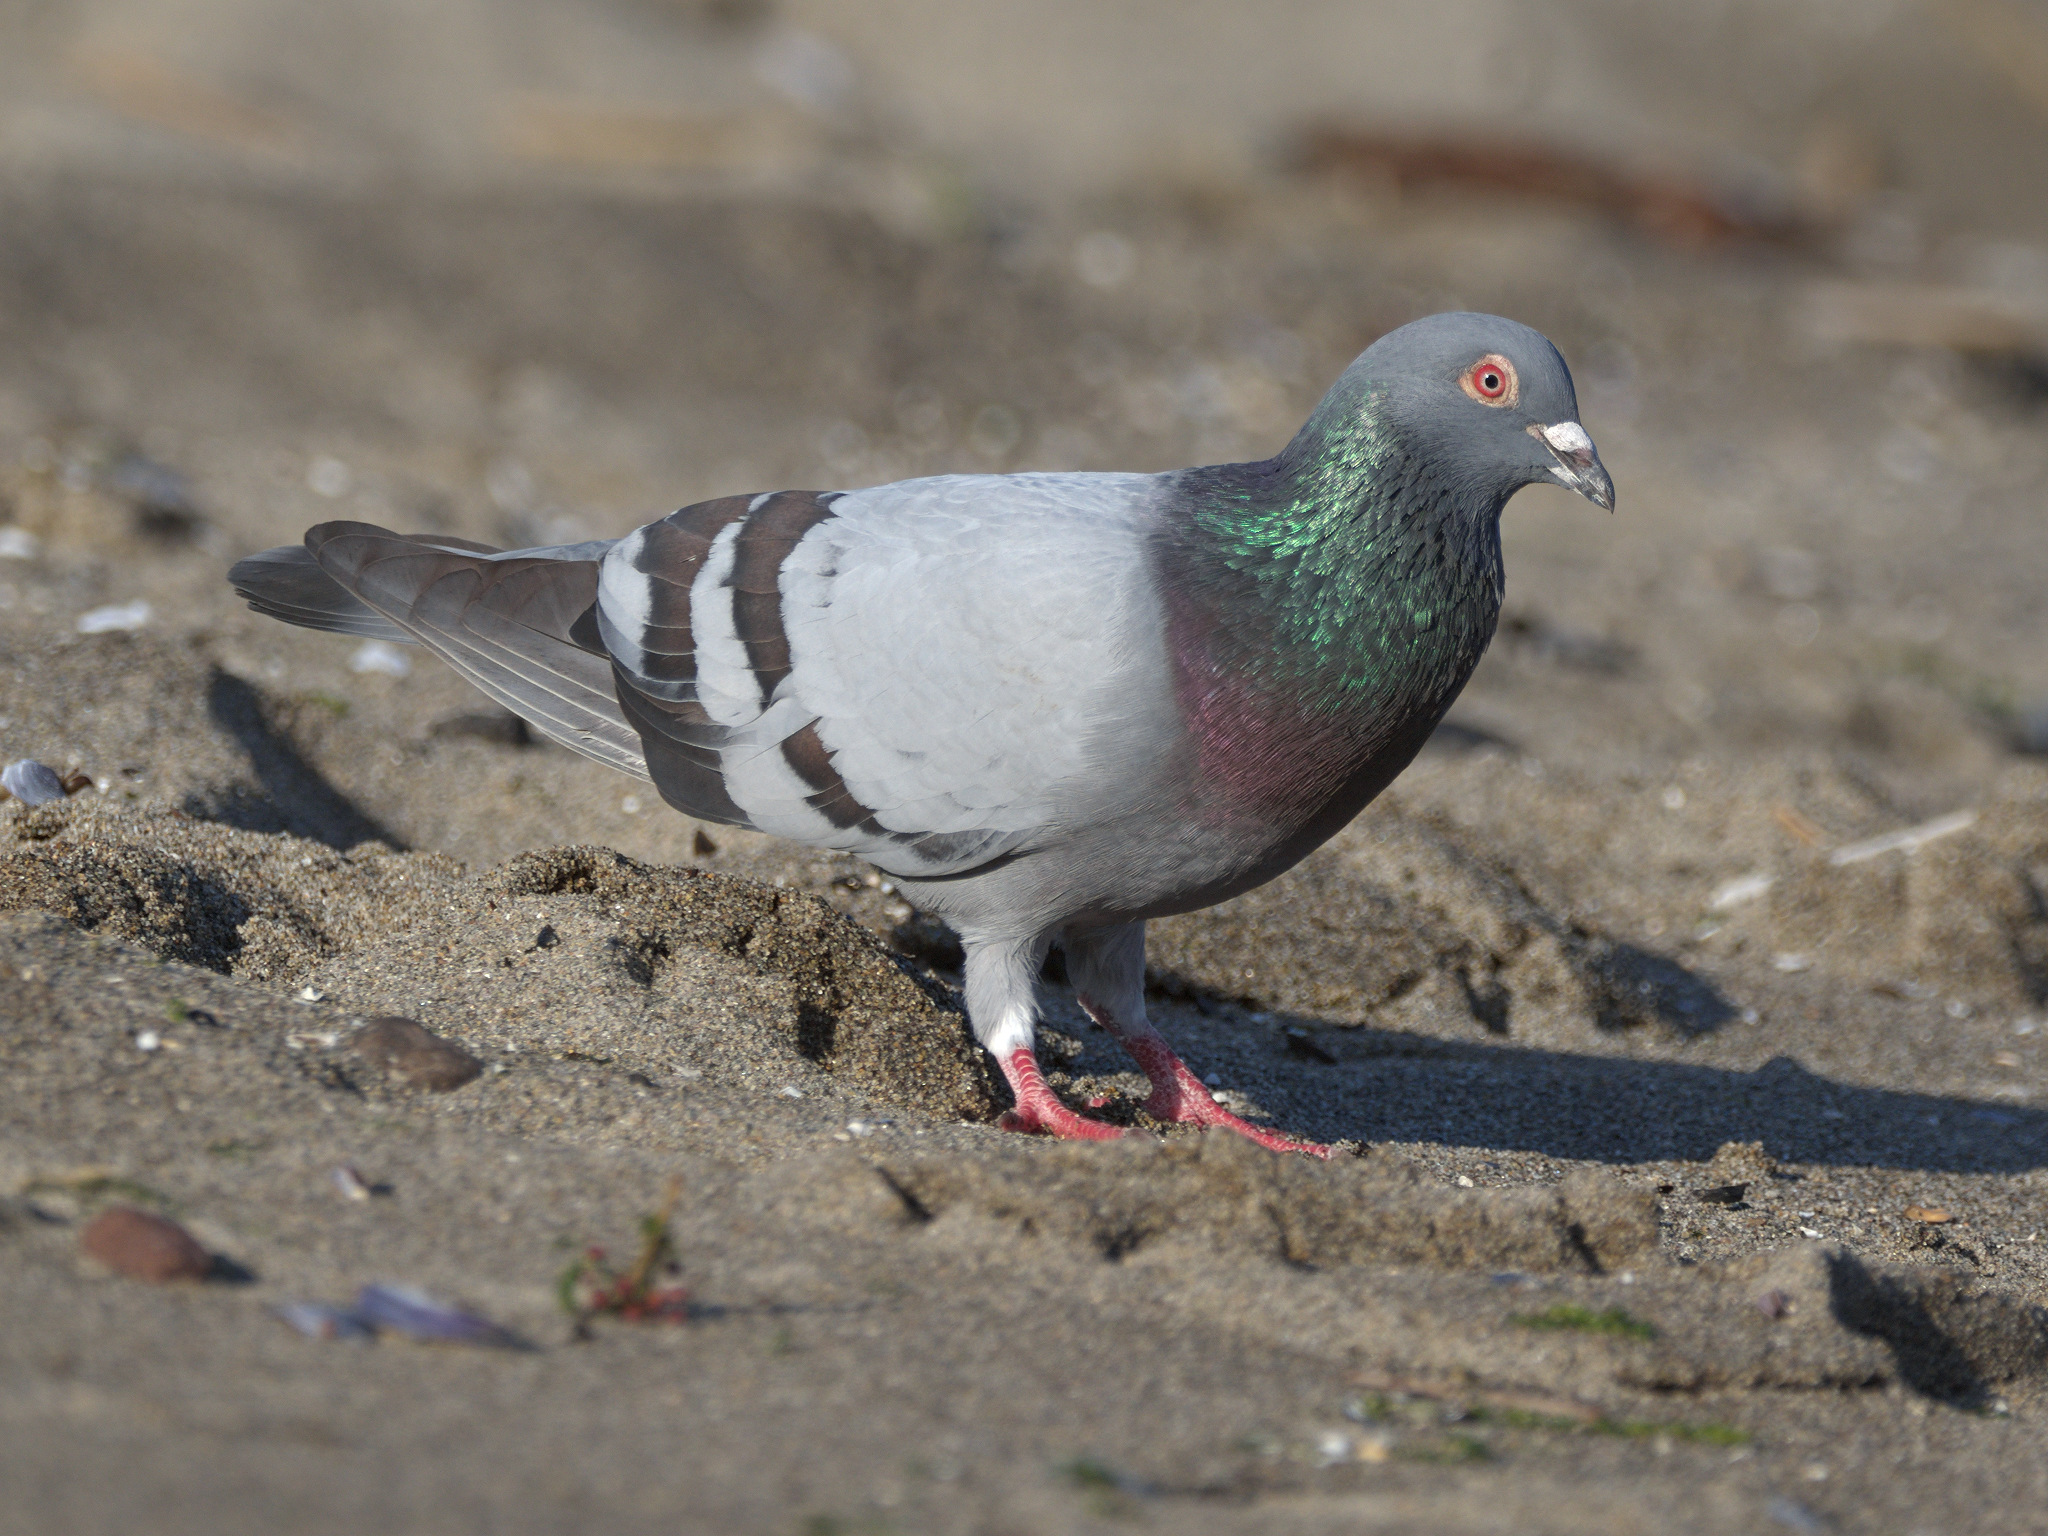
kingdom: Animalia
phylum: Chordata
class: Aves
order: Columbiformes
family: Columbidae
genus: Columba
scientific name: Columba livia
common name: Rock pigeon
